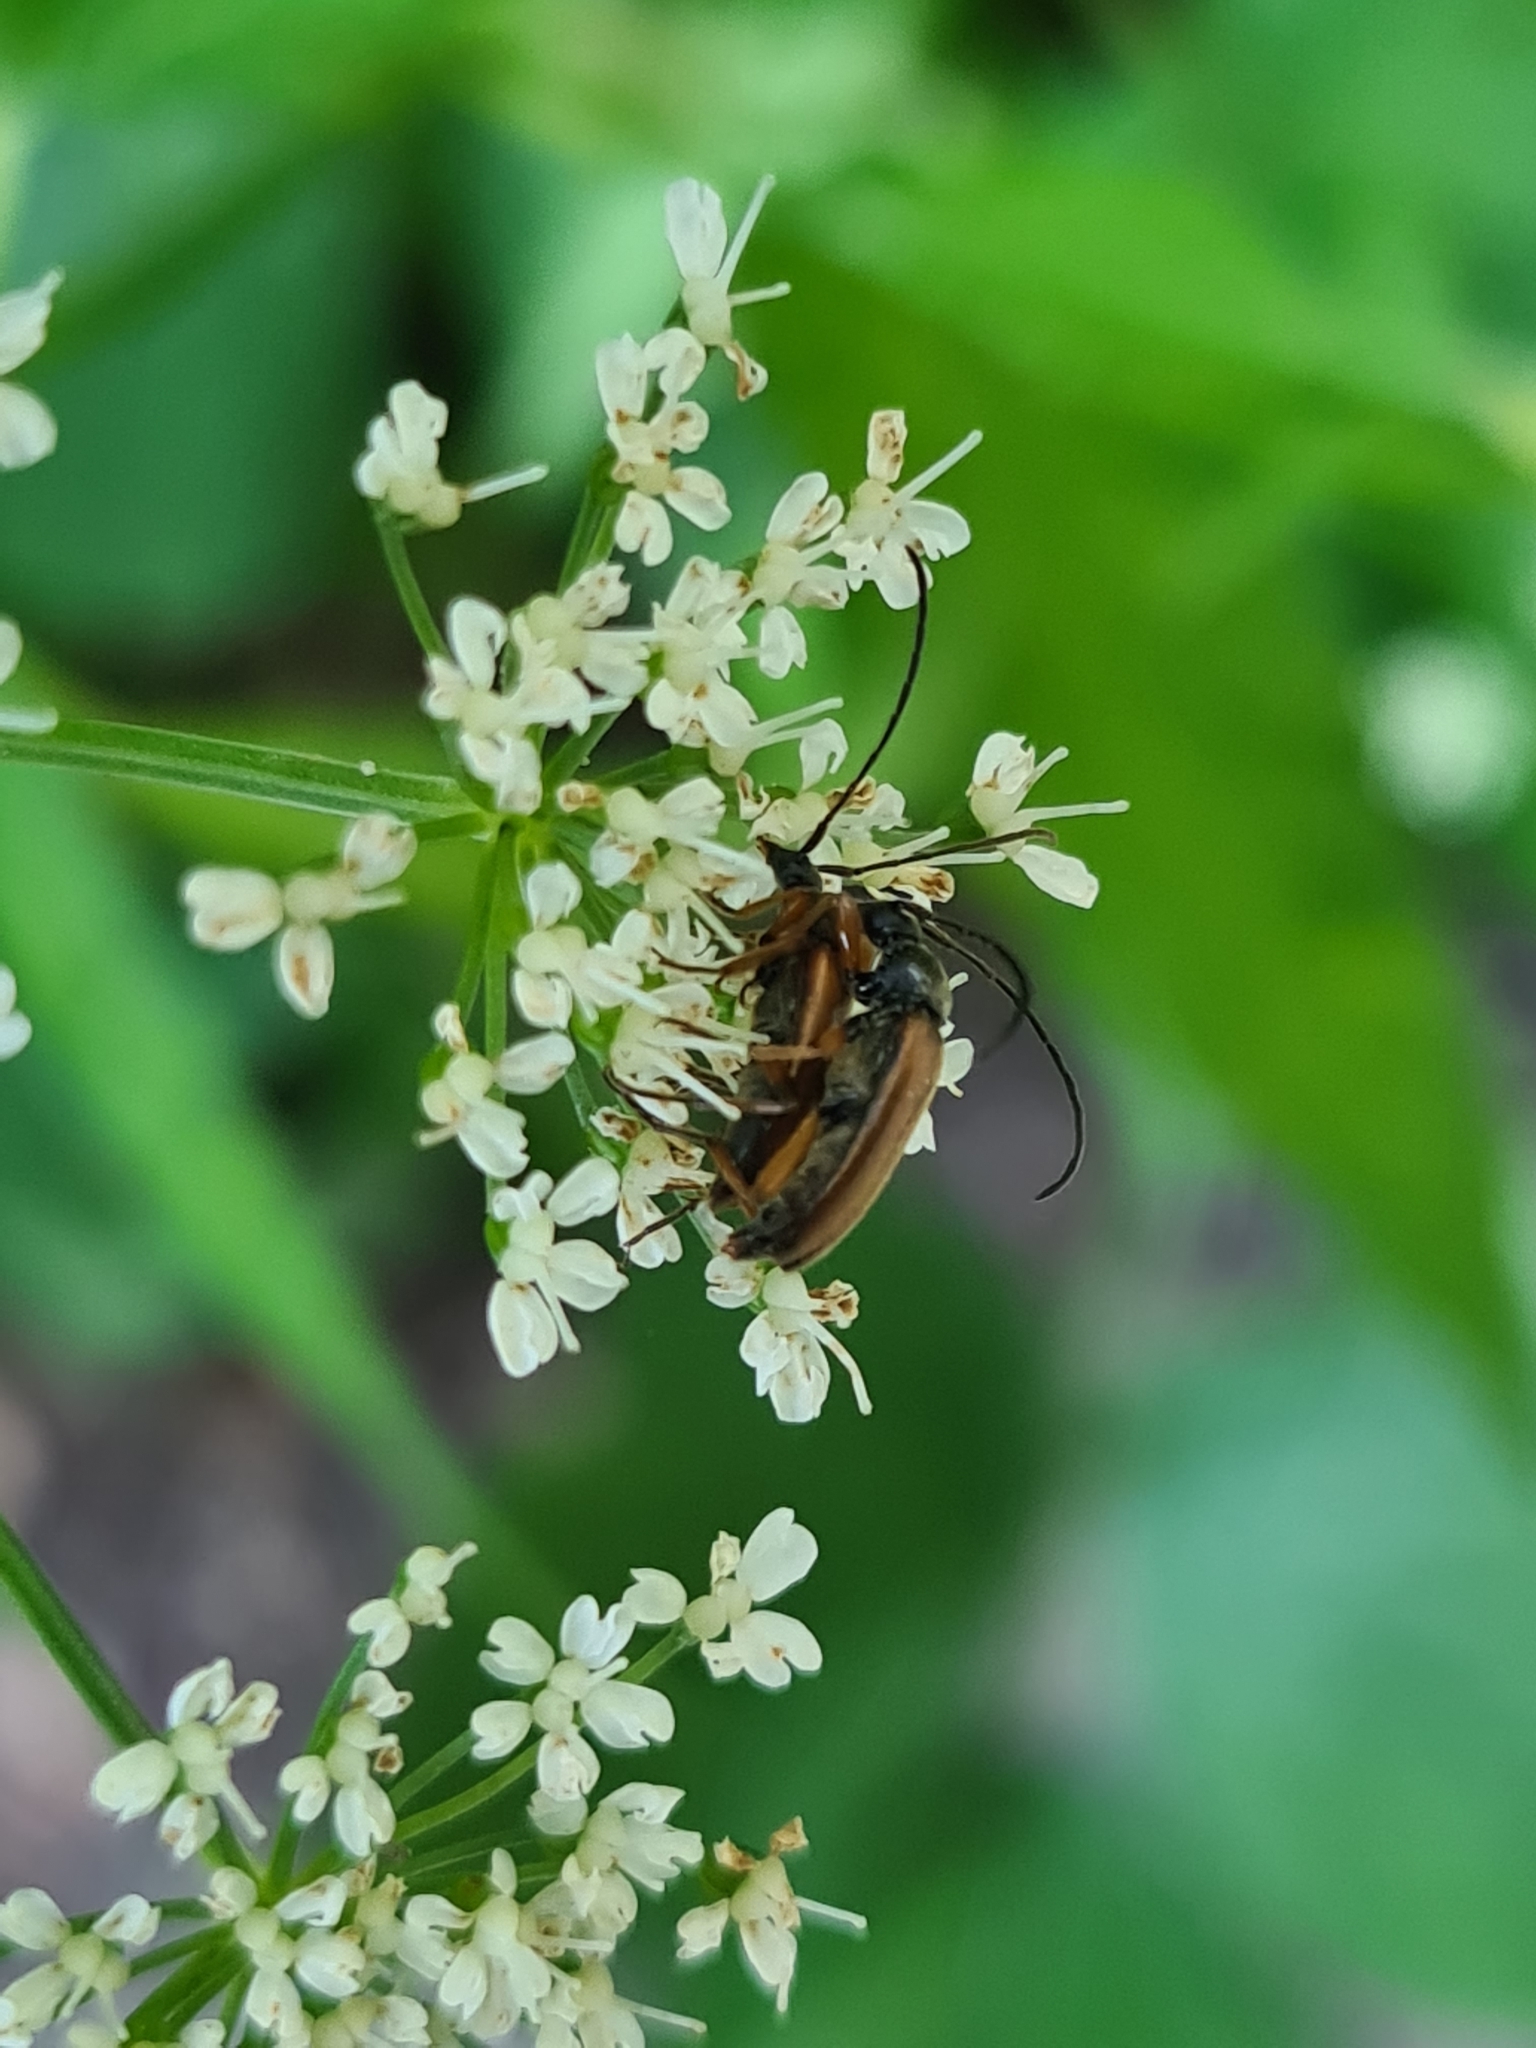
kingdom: Animalia
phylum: Arthropoda
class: Insecta
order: Coleoptera
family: Cerambycidae
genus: Alosterna
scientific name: Alosterna tabacicolor
